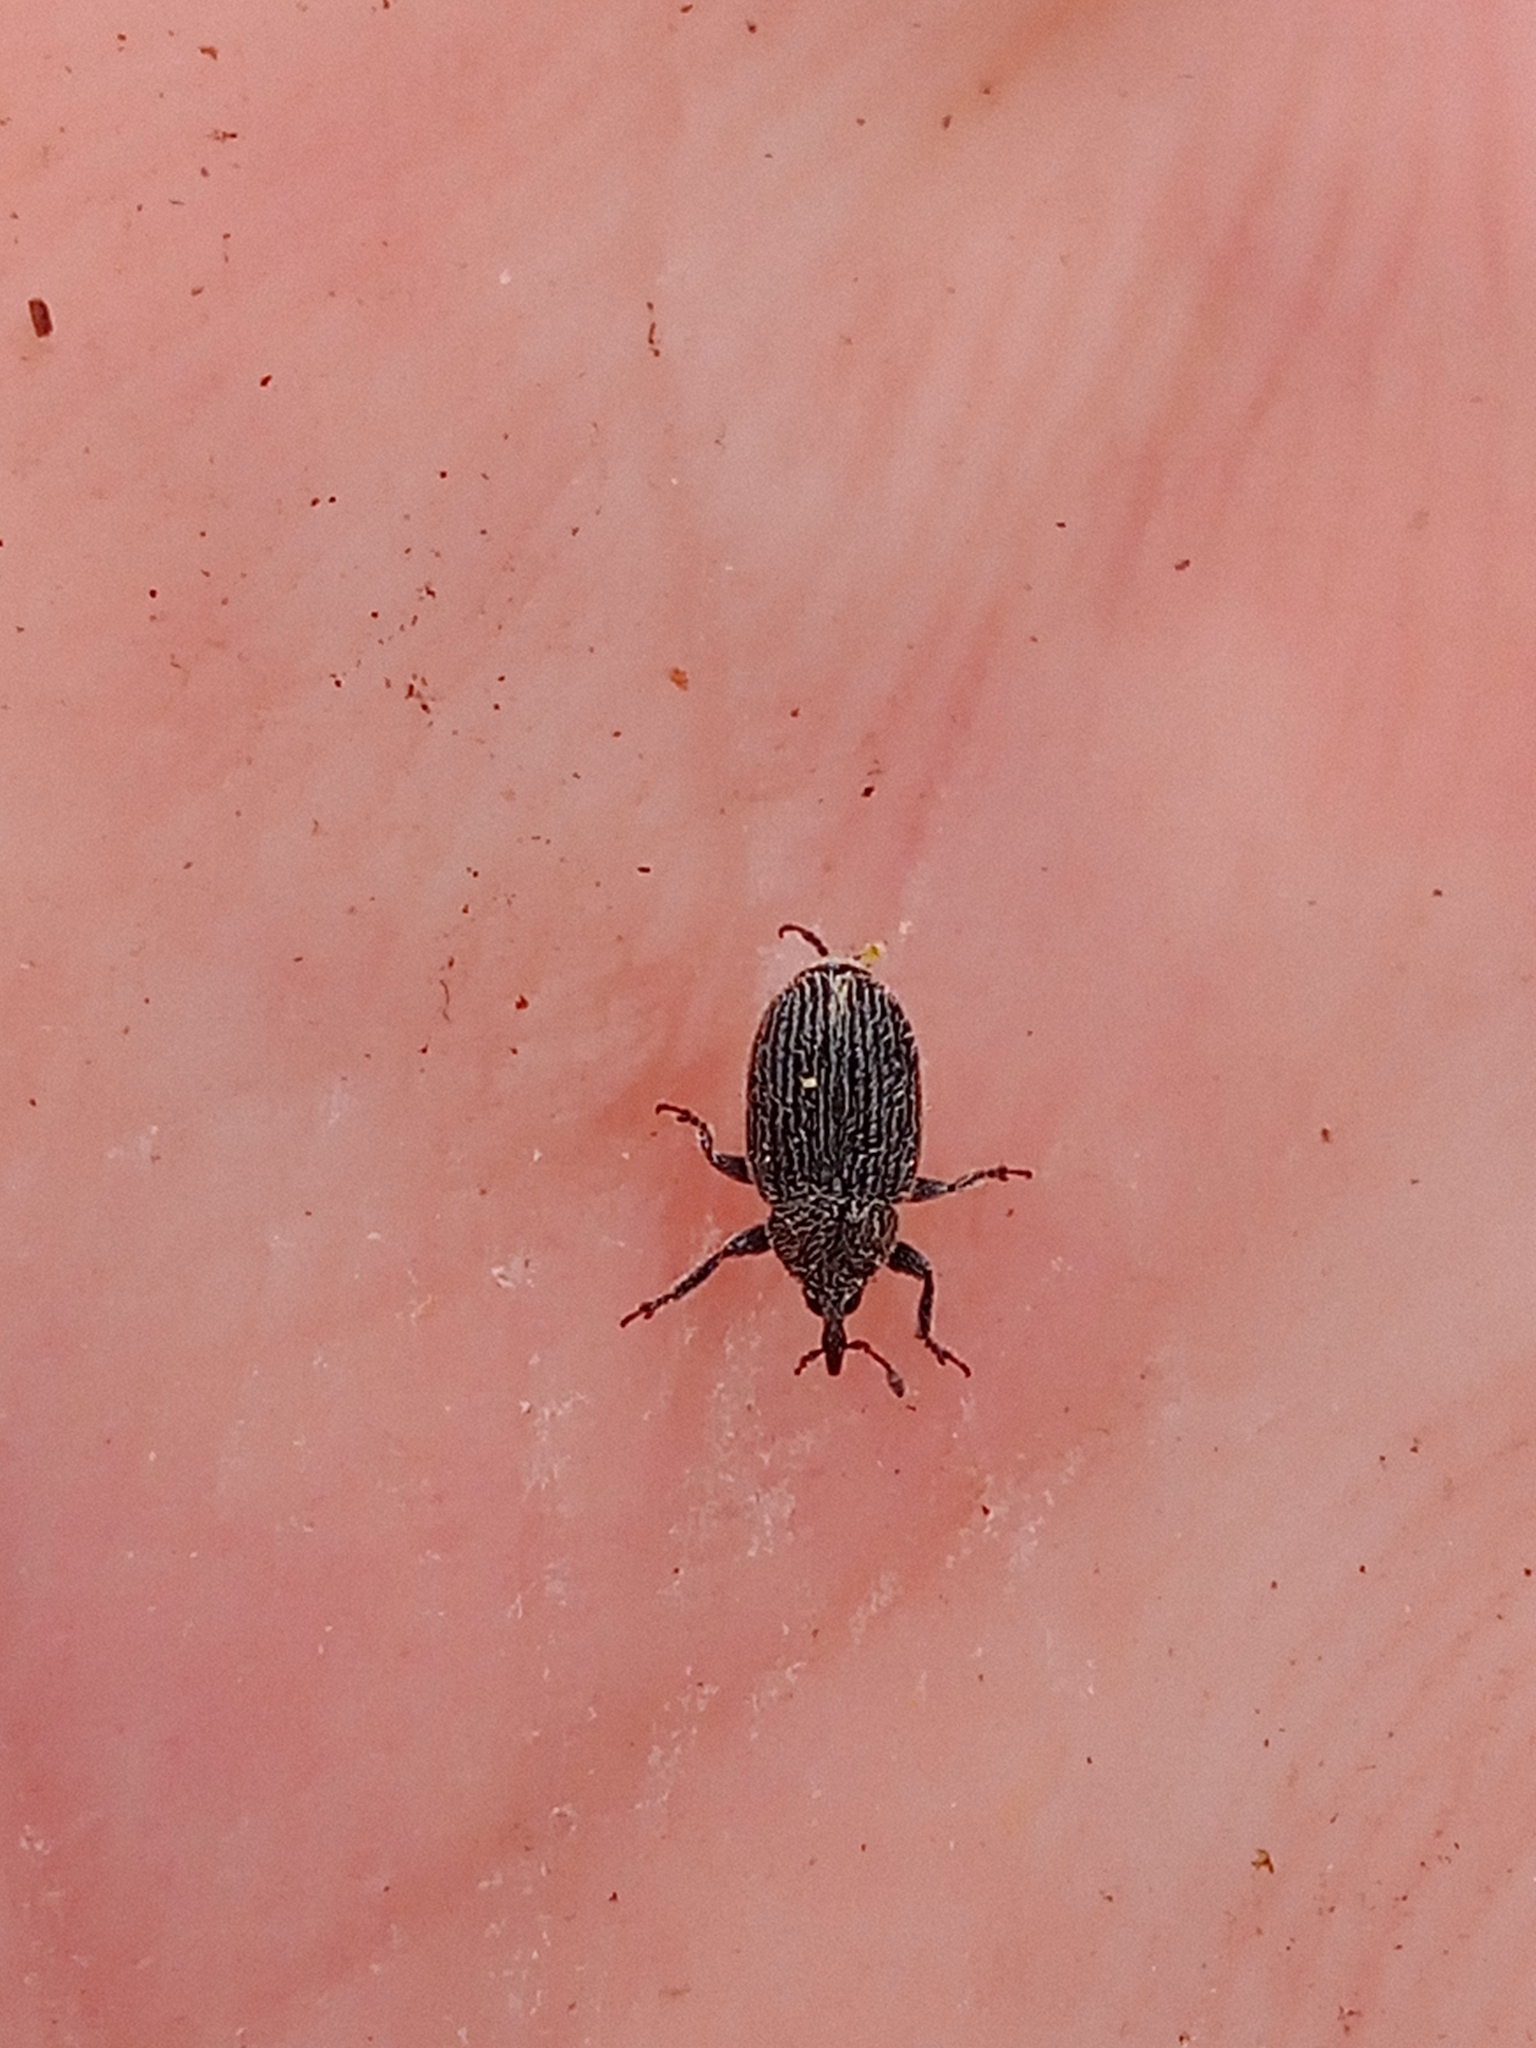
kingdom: Animalia
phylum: Arthropoda
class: Insecta
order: Coleoptera
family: Curculionidae
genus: Rhinusa
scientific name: Rhinusa antirrhini
